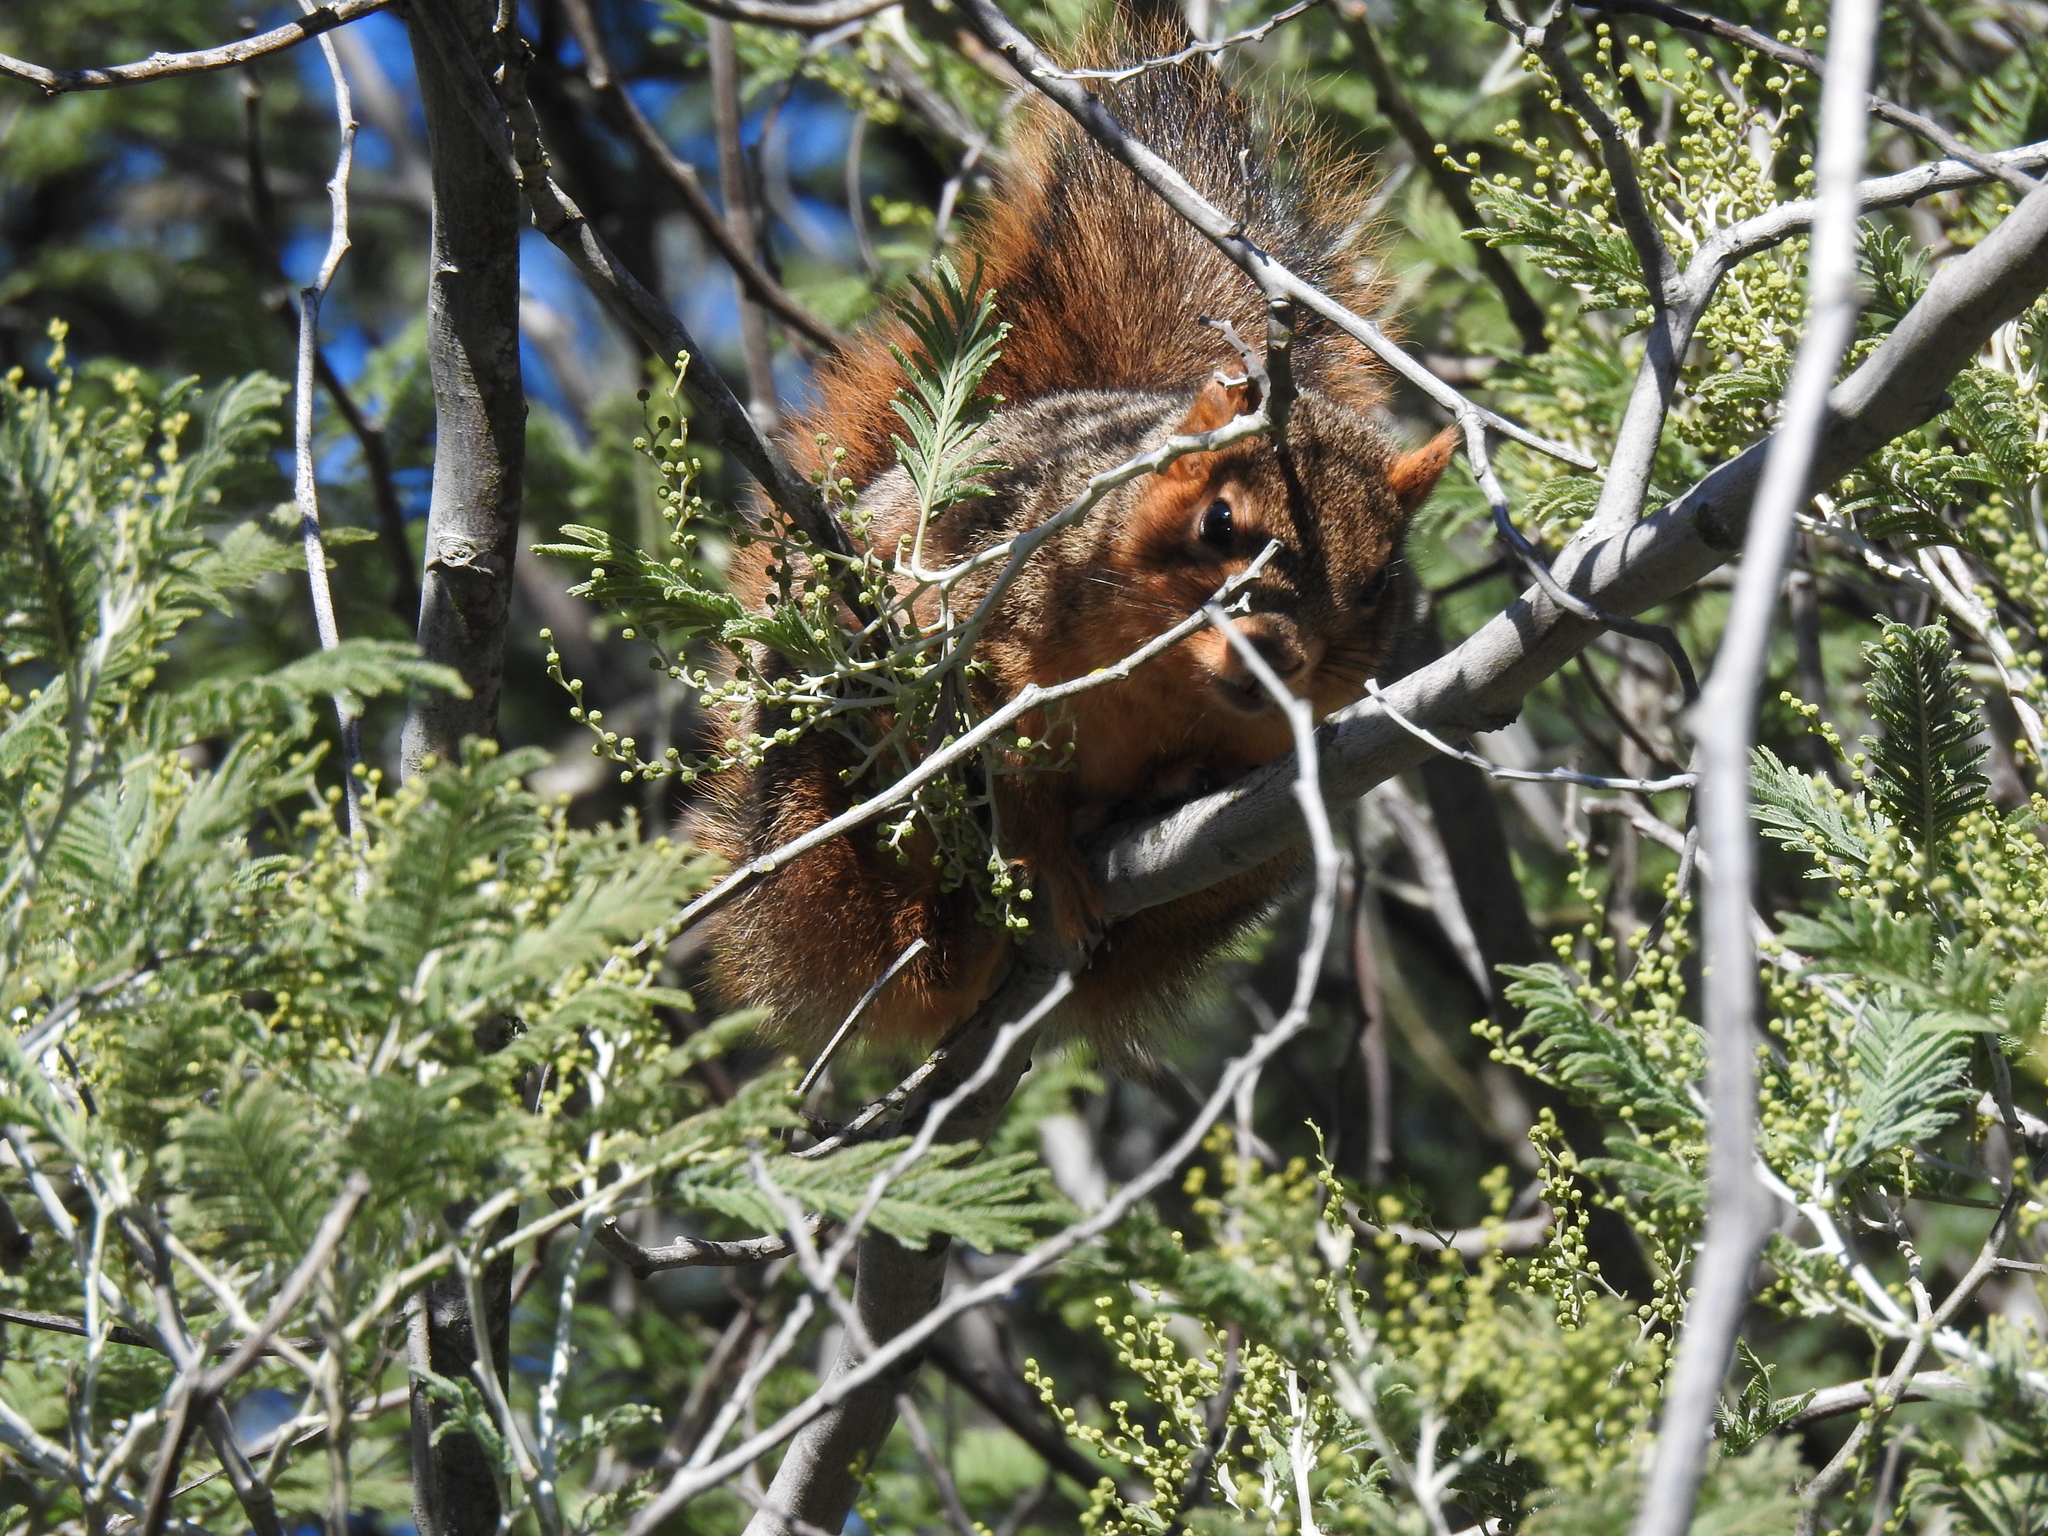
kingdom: Animalia
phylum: Chordata
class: Mammalia
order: Rodentia
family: Sciuridae
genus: Sciurus
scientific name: Sciurus niger
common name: Fox squirrel
